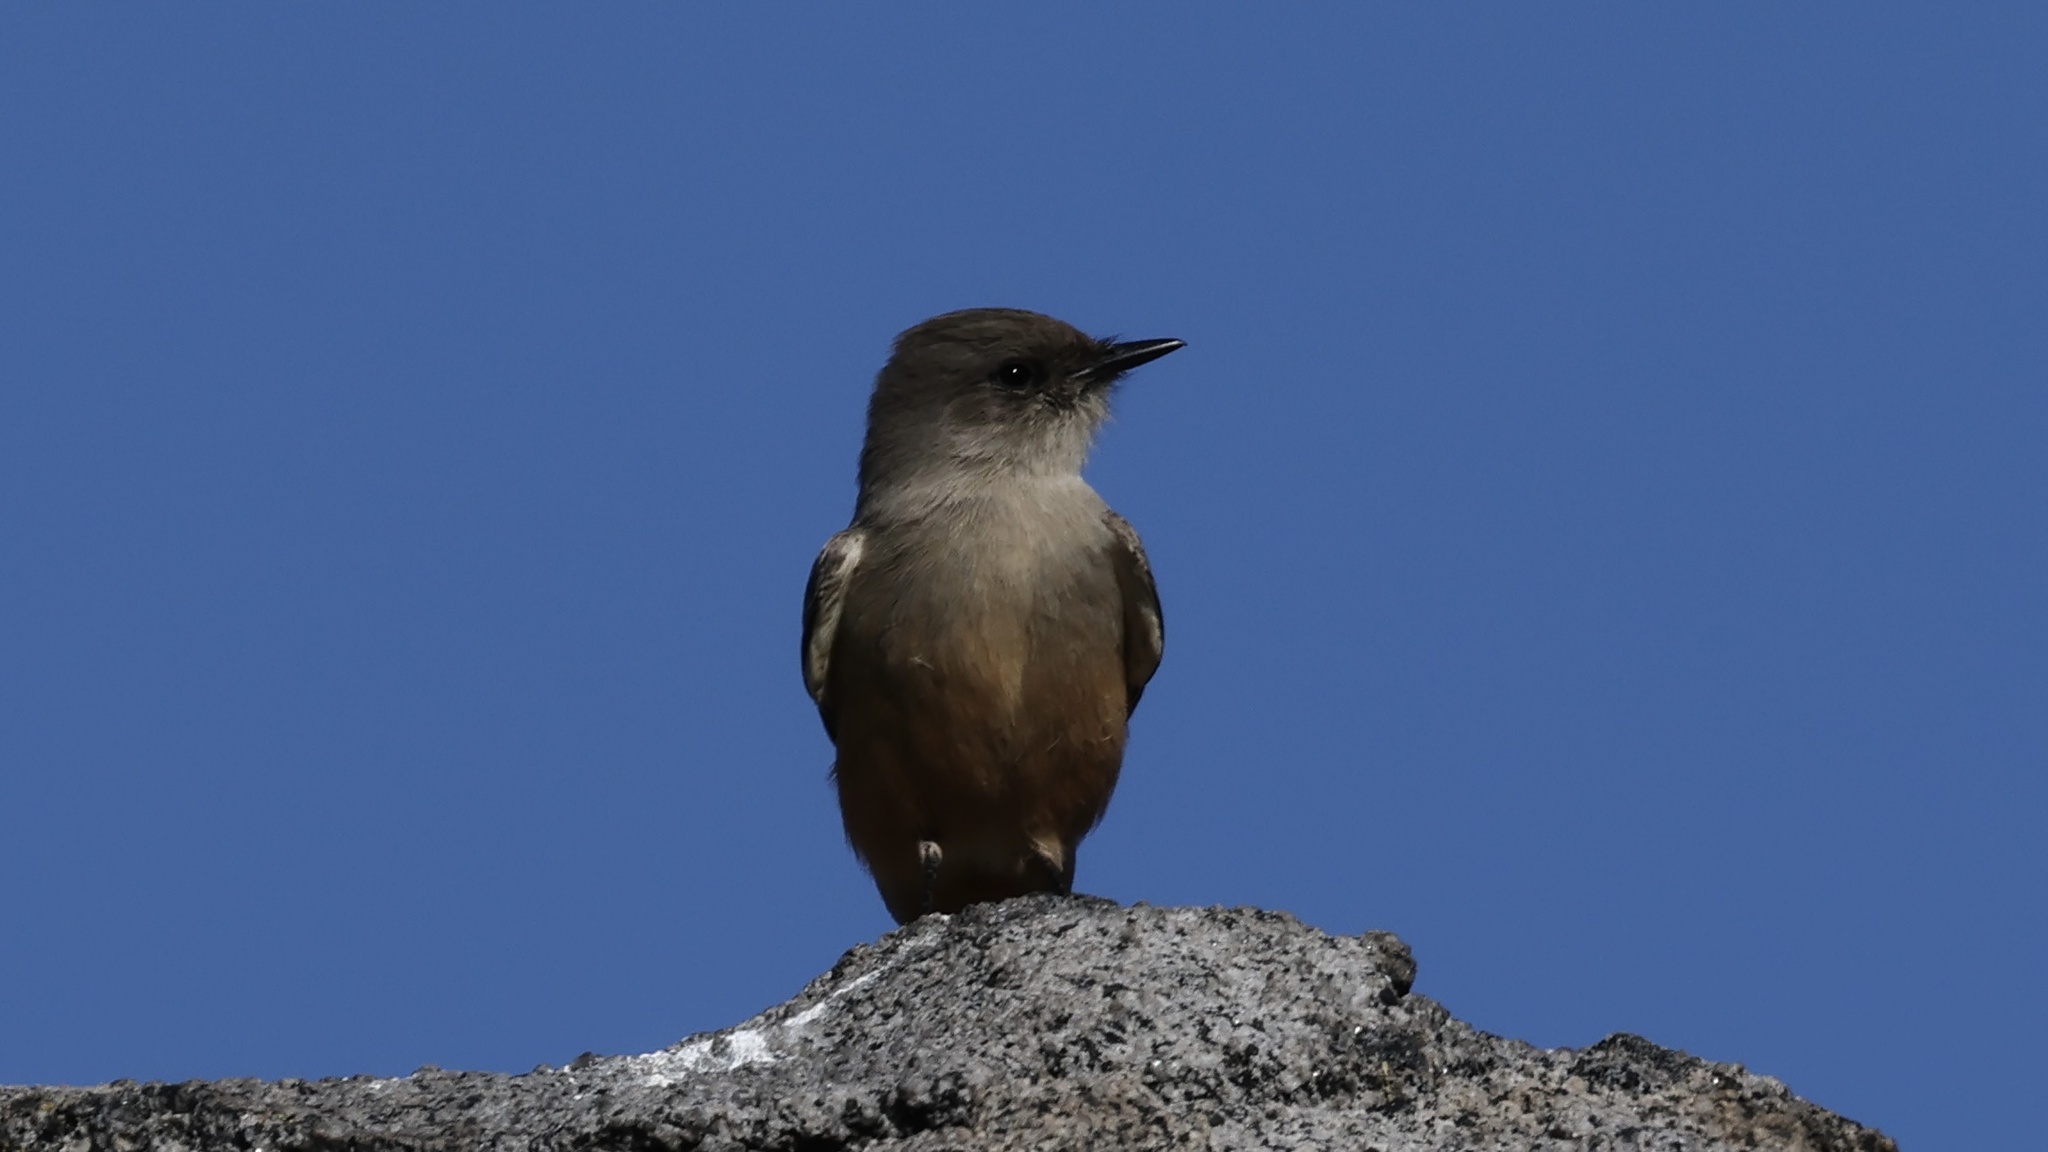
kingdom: Animalia
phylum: Chordata
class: Aves
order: Passeriformes
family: Tyrannidae
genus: Sayornis
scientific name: Sayornis saya
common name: Say's phoebe
